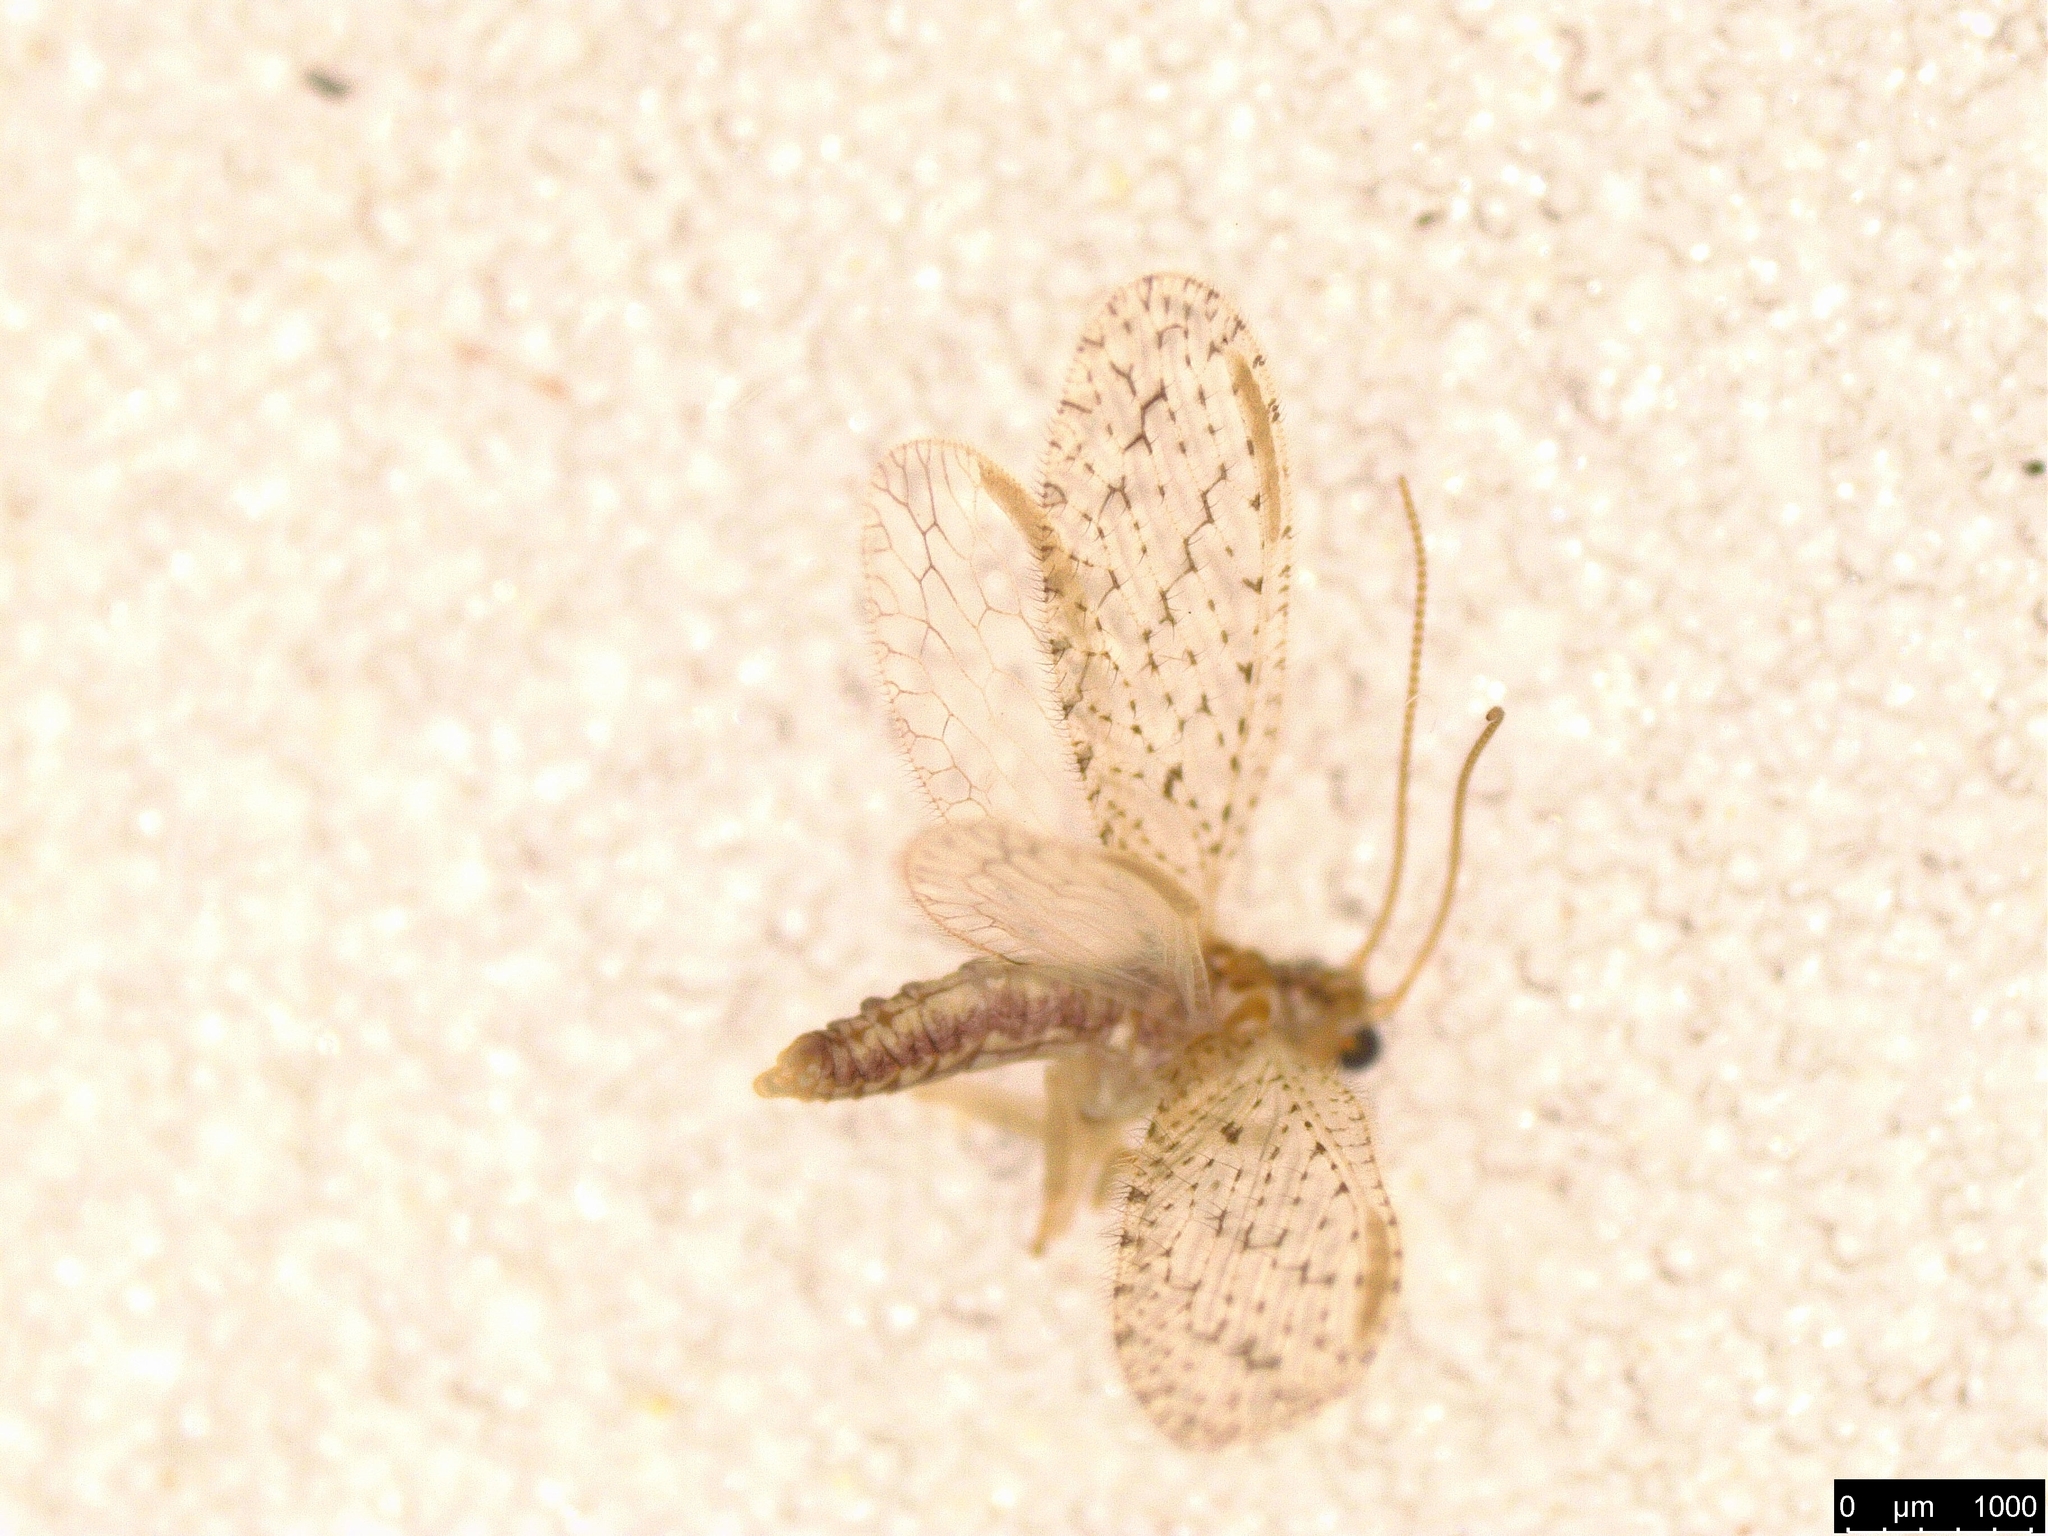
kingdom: Animalia
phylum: Arthropoda
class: Insecta
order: Neuroptera
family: Hemerobiidae
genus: Micromus
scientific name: Micromus tasmaniae
